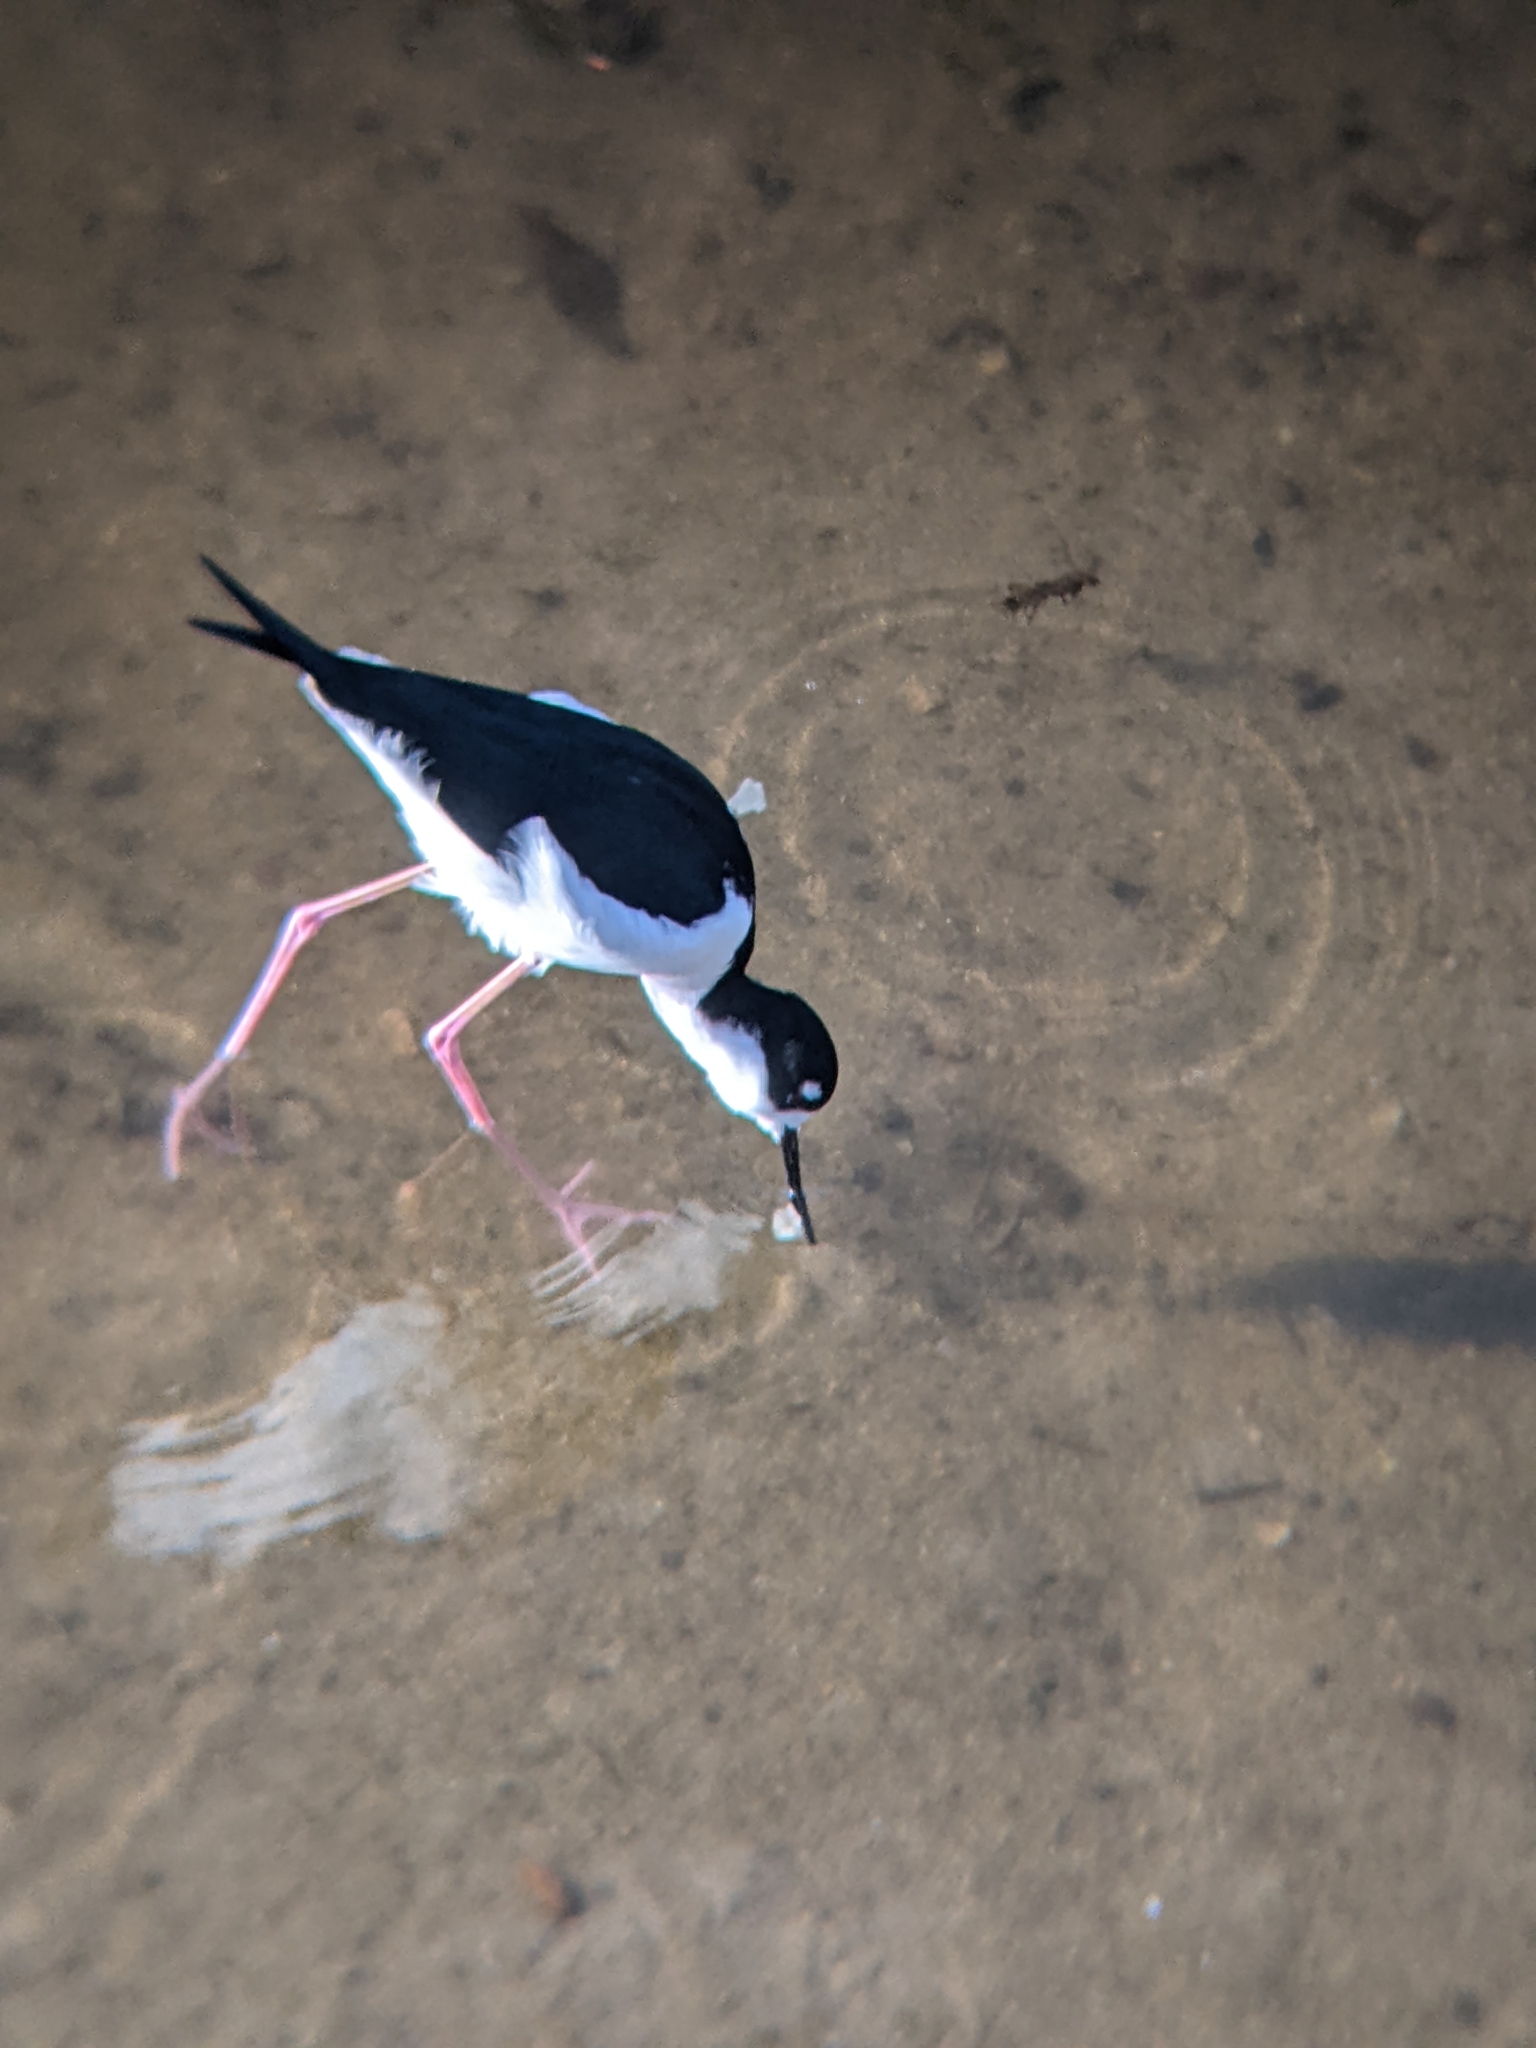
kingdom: Animalia
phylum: Chordata
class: Aves
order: Charadriiformes
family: Recurvirostridae
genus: Himantopus
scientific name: Himantopus mexicanus
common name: Black-necked stilt
